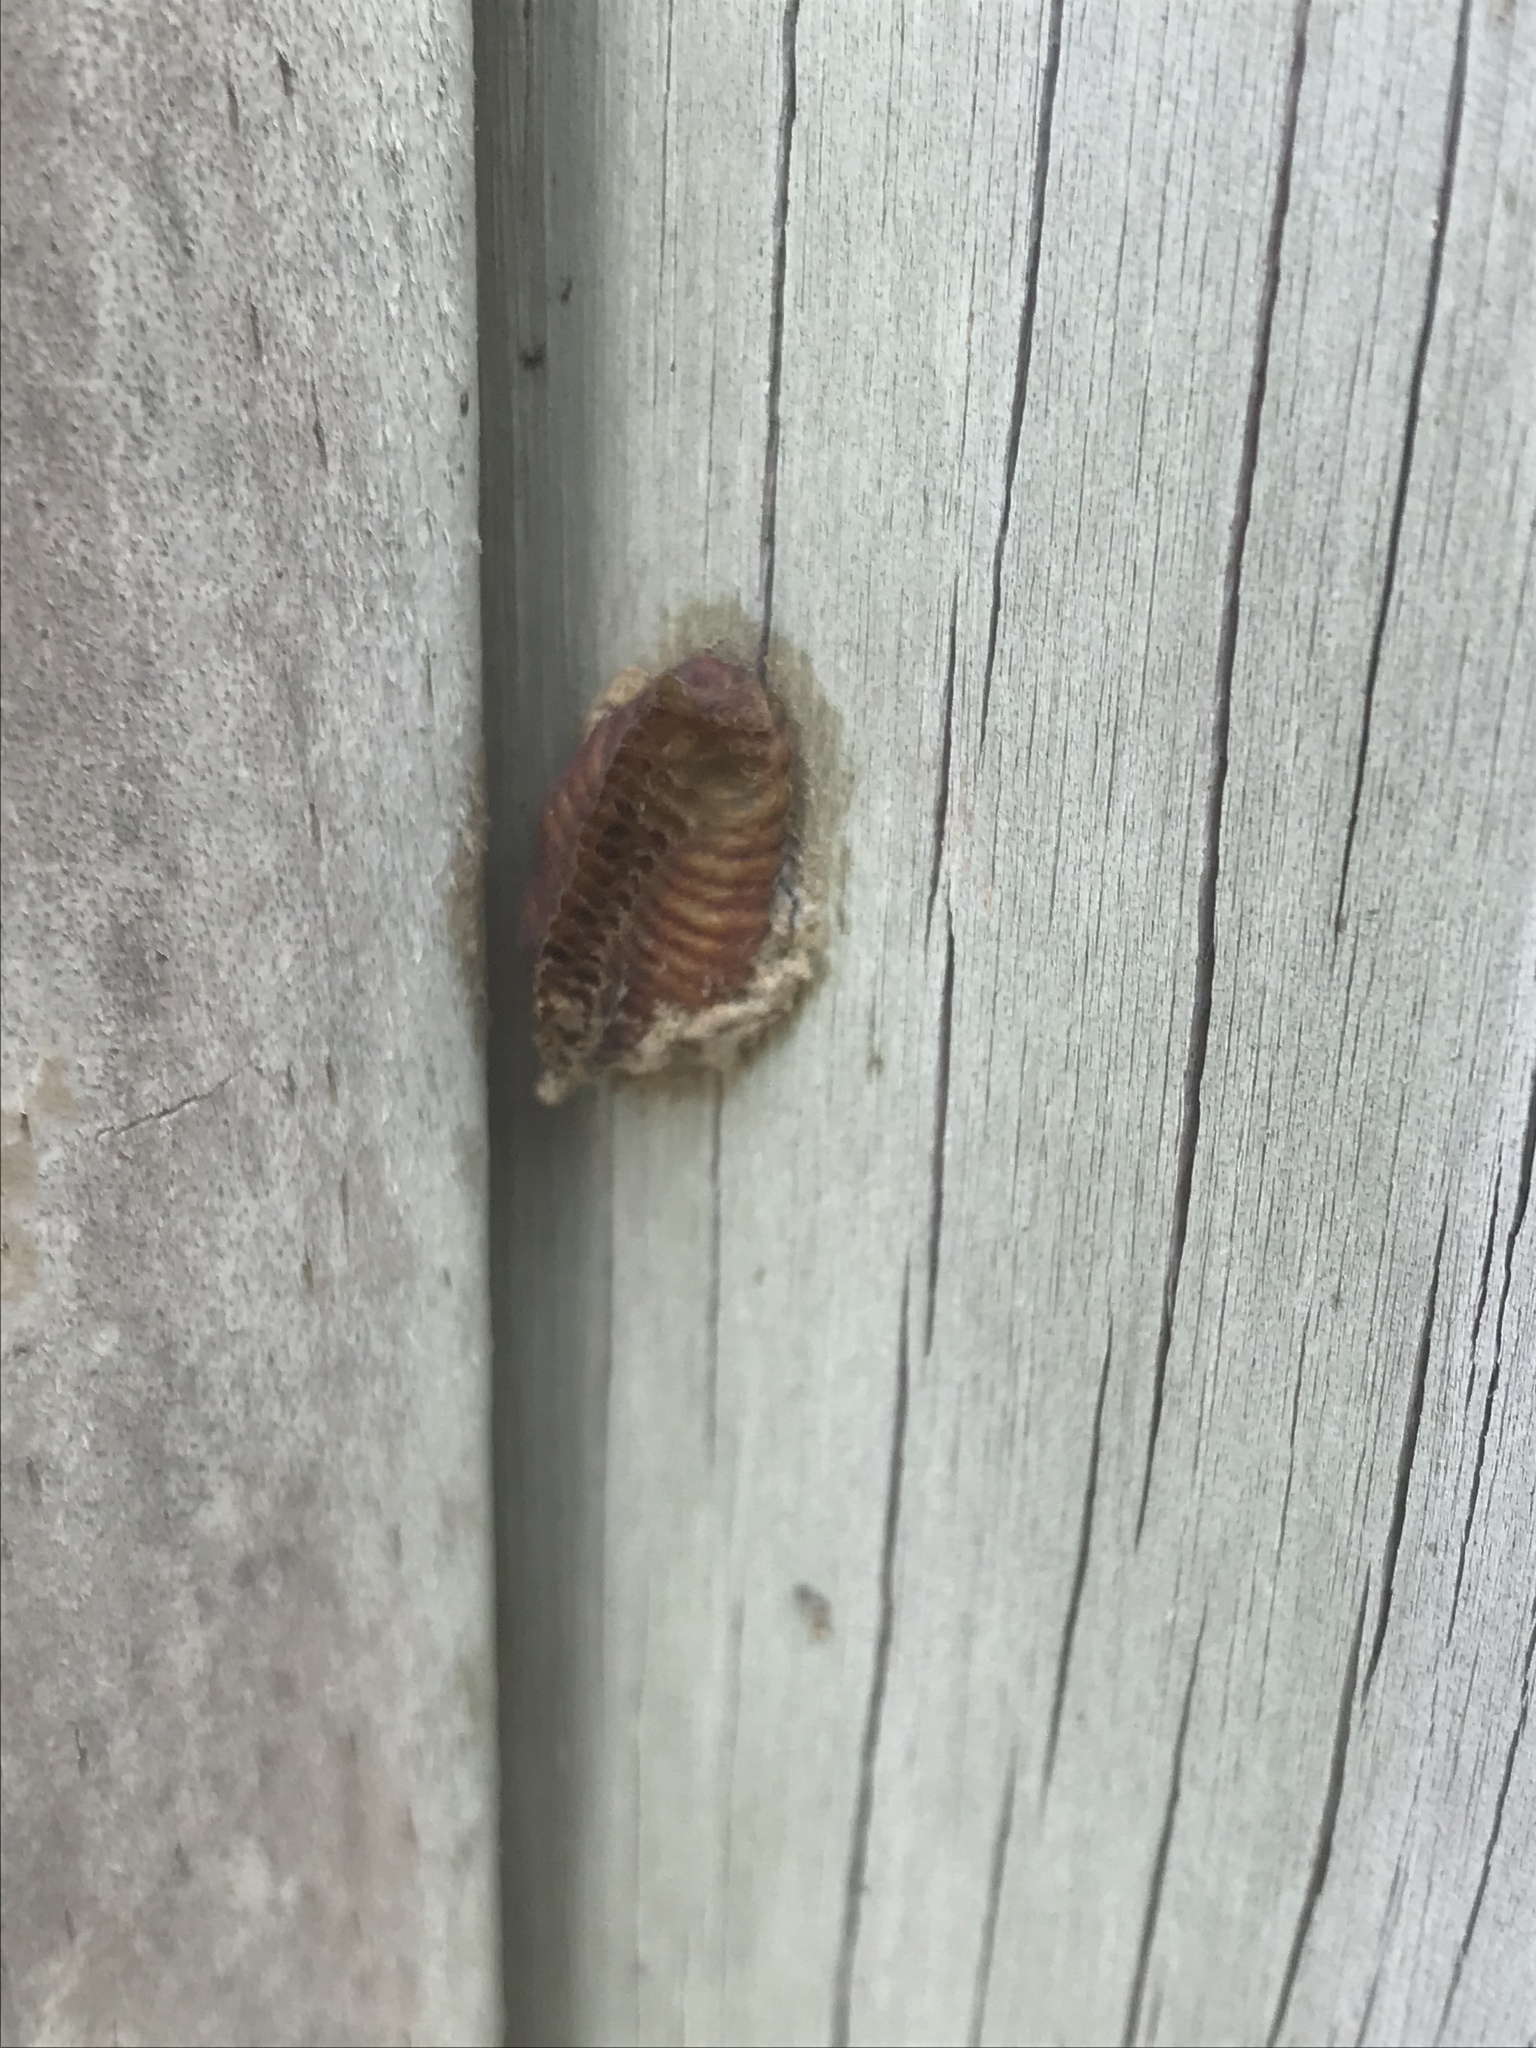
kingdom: Animalia
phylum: Arthropoda
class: Insecta
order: Mantodea
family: Miomantidae
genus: Miomantis
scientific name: Miomantis caffra
